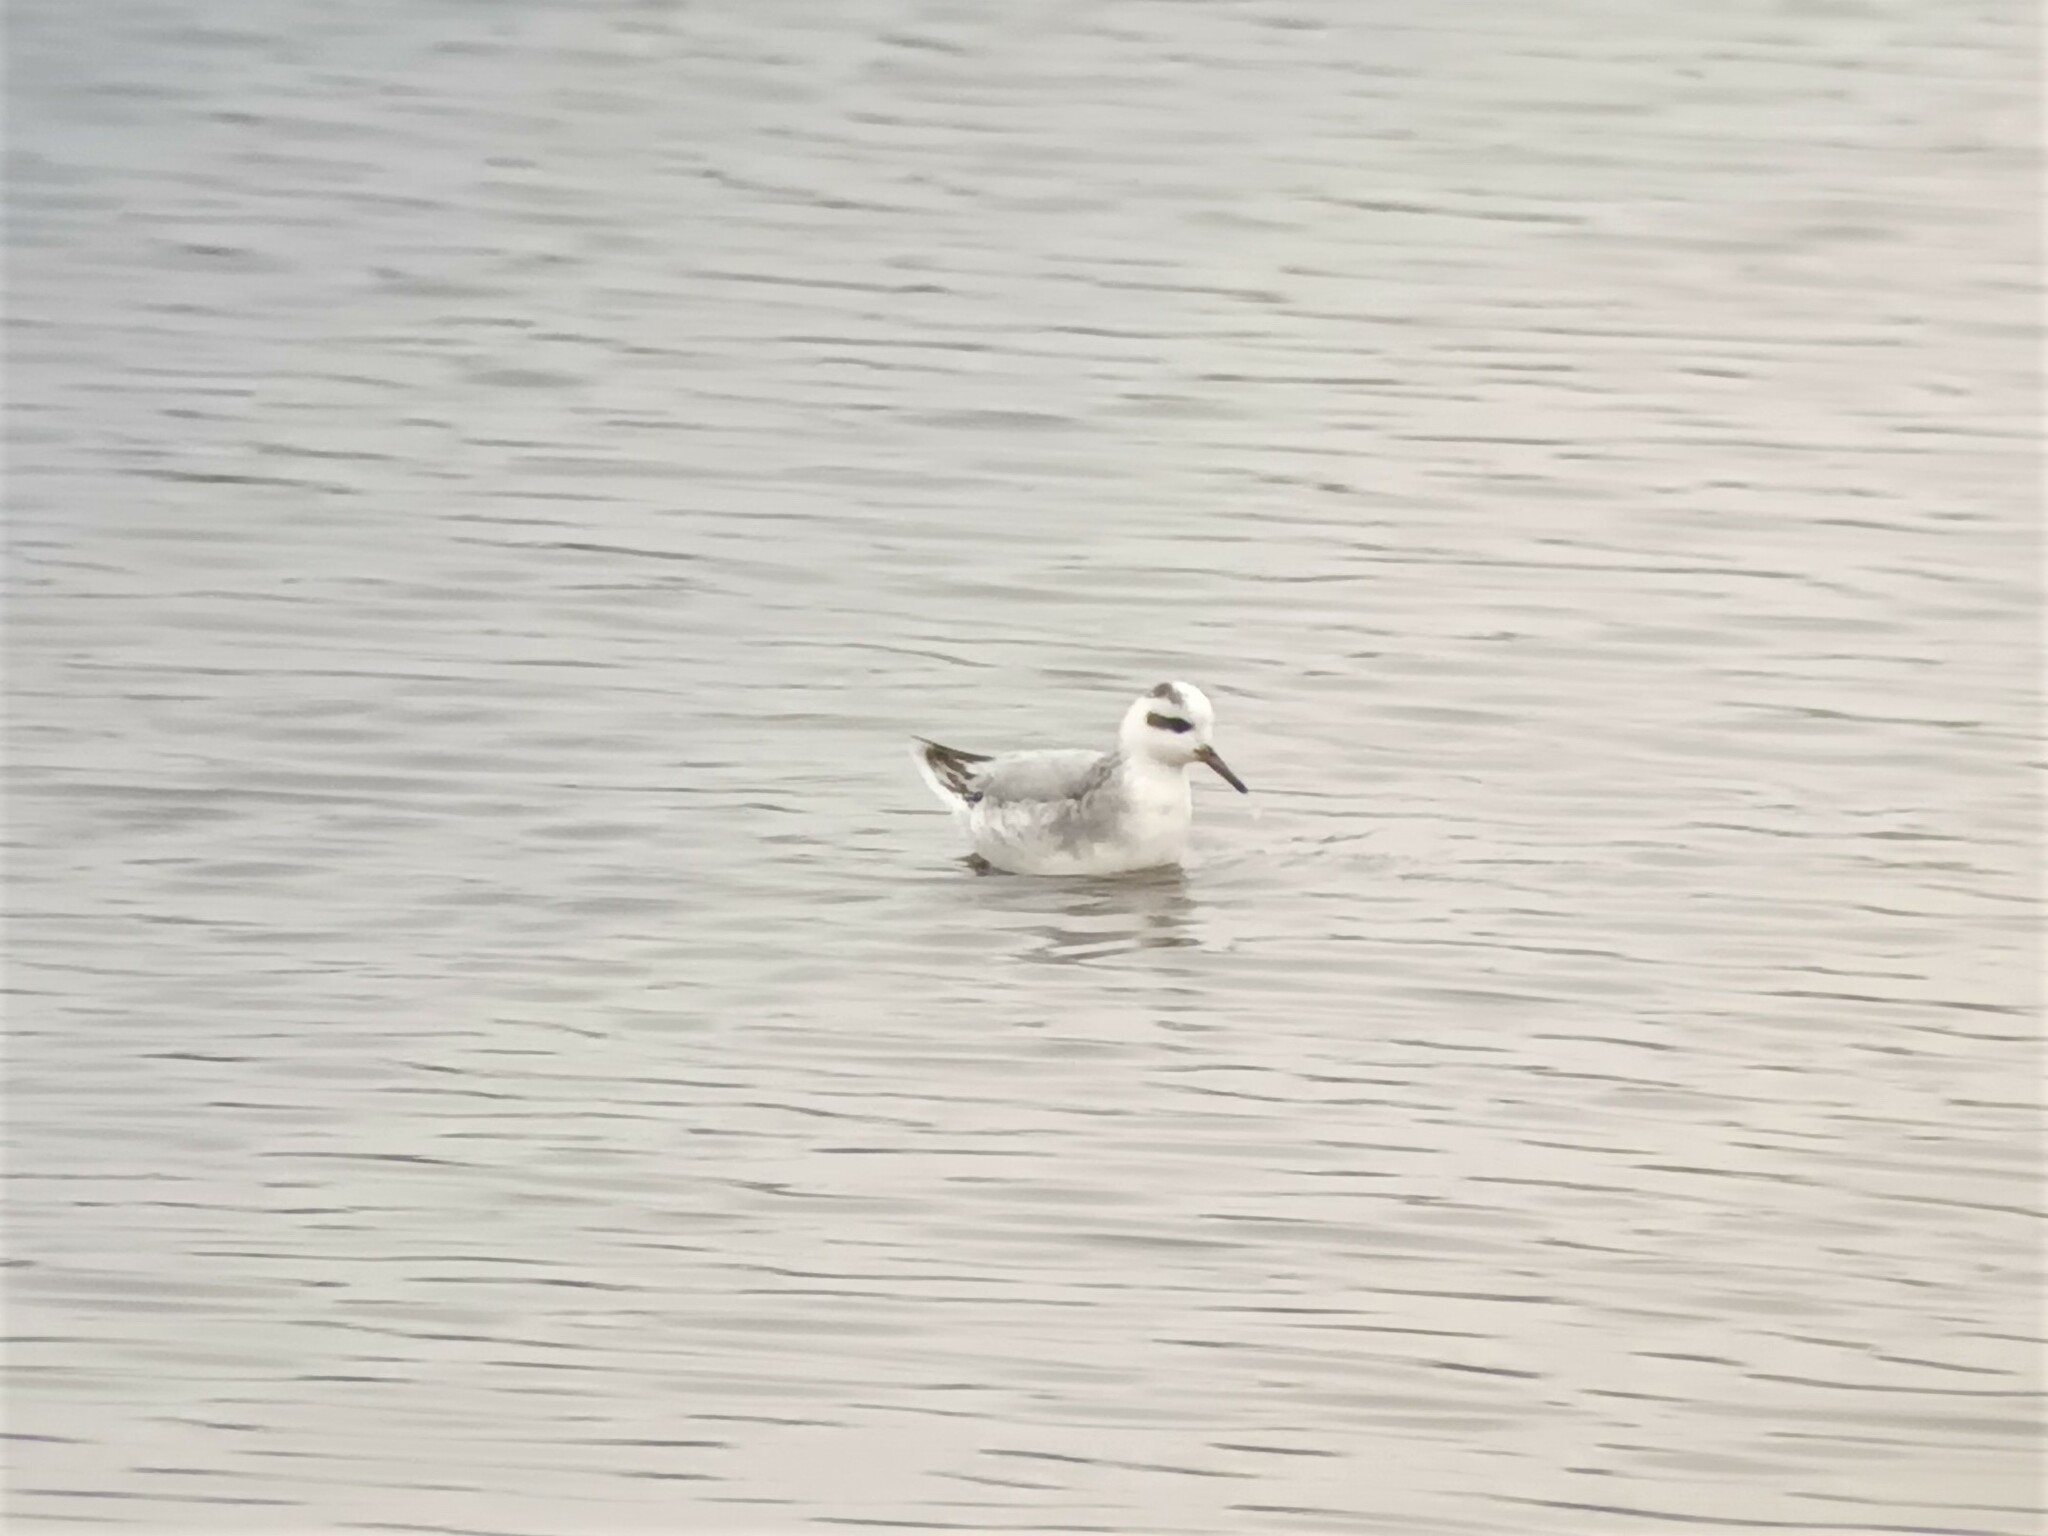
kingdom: Animalia
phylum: Chordata
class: Aves
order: Charadriiformes
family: Scolopacidae
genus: Phalaropus
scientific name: Phalaropus fulicarius
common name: Red phalarope
